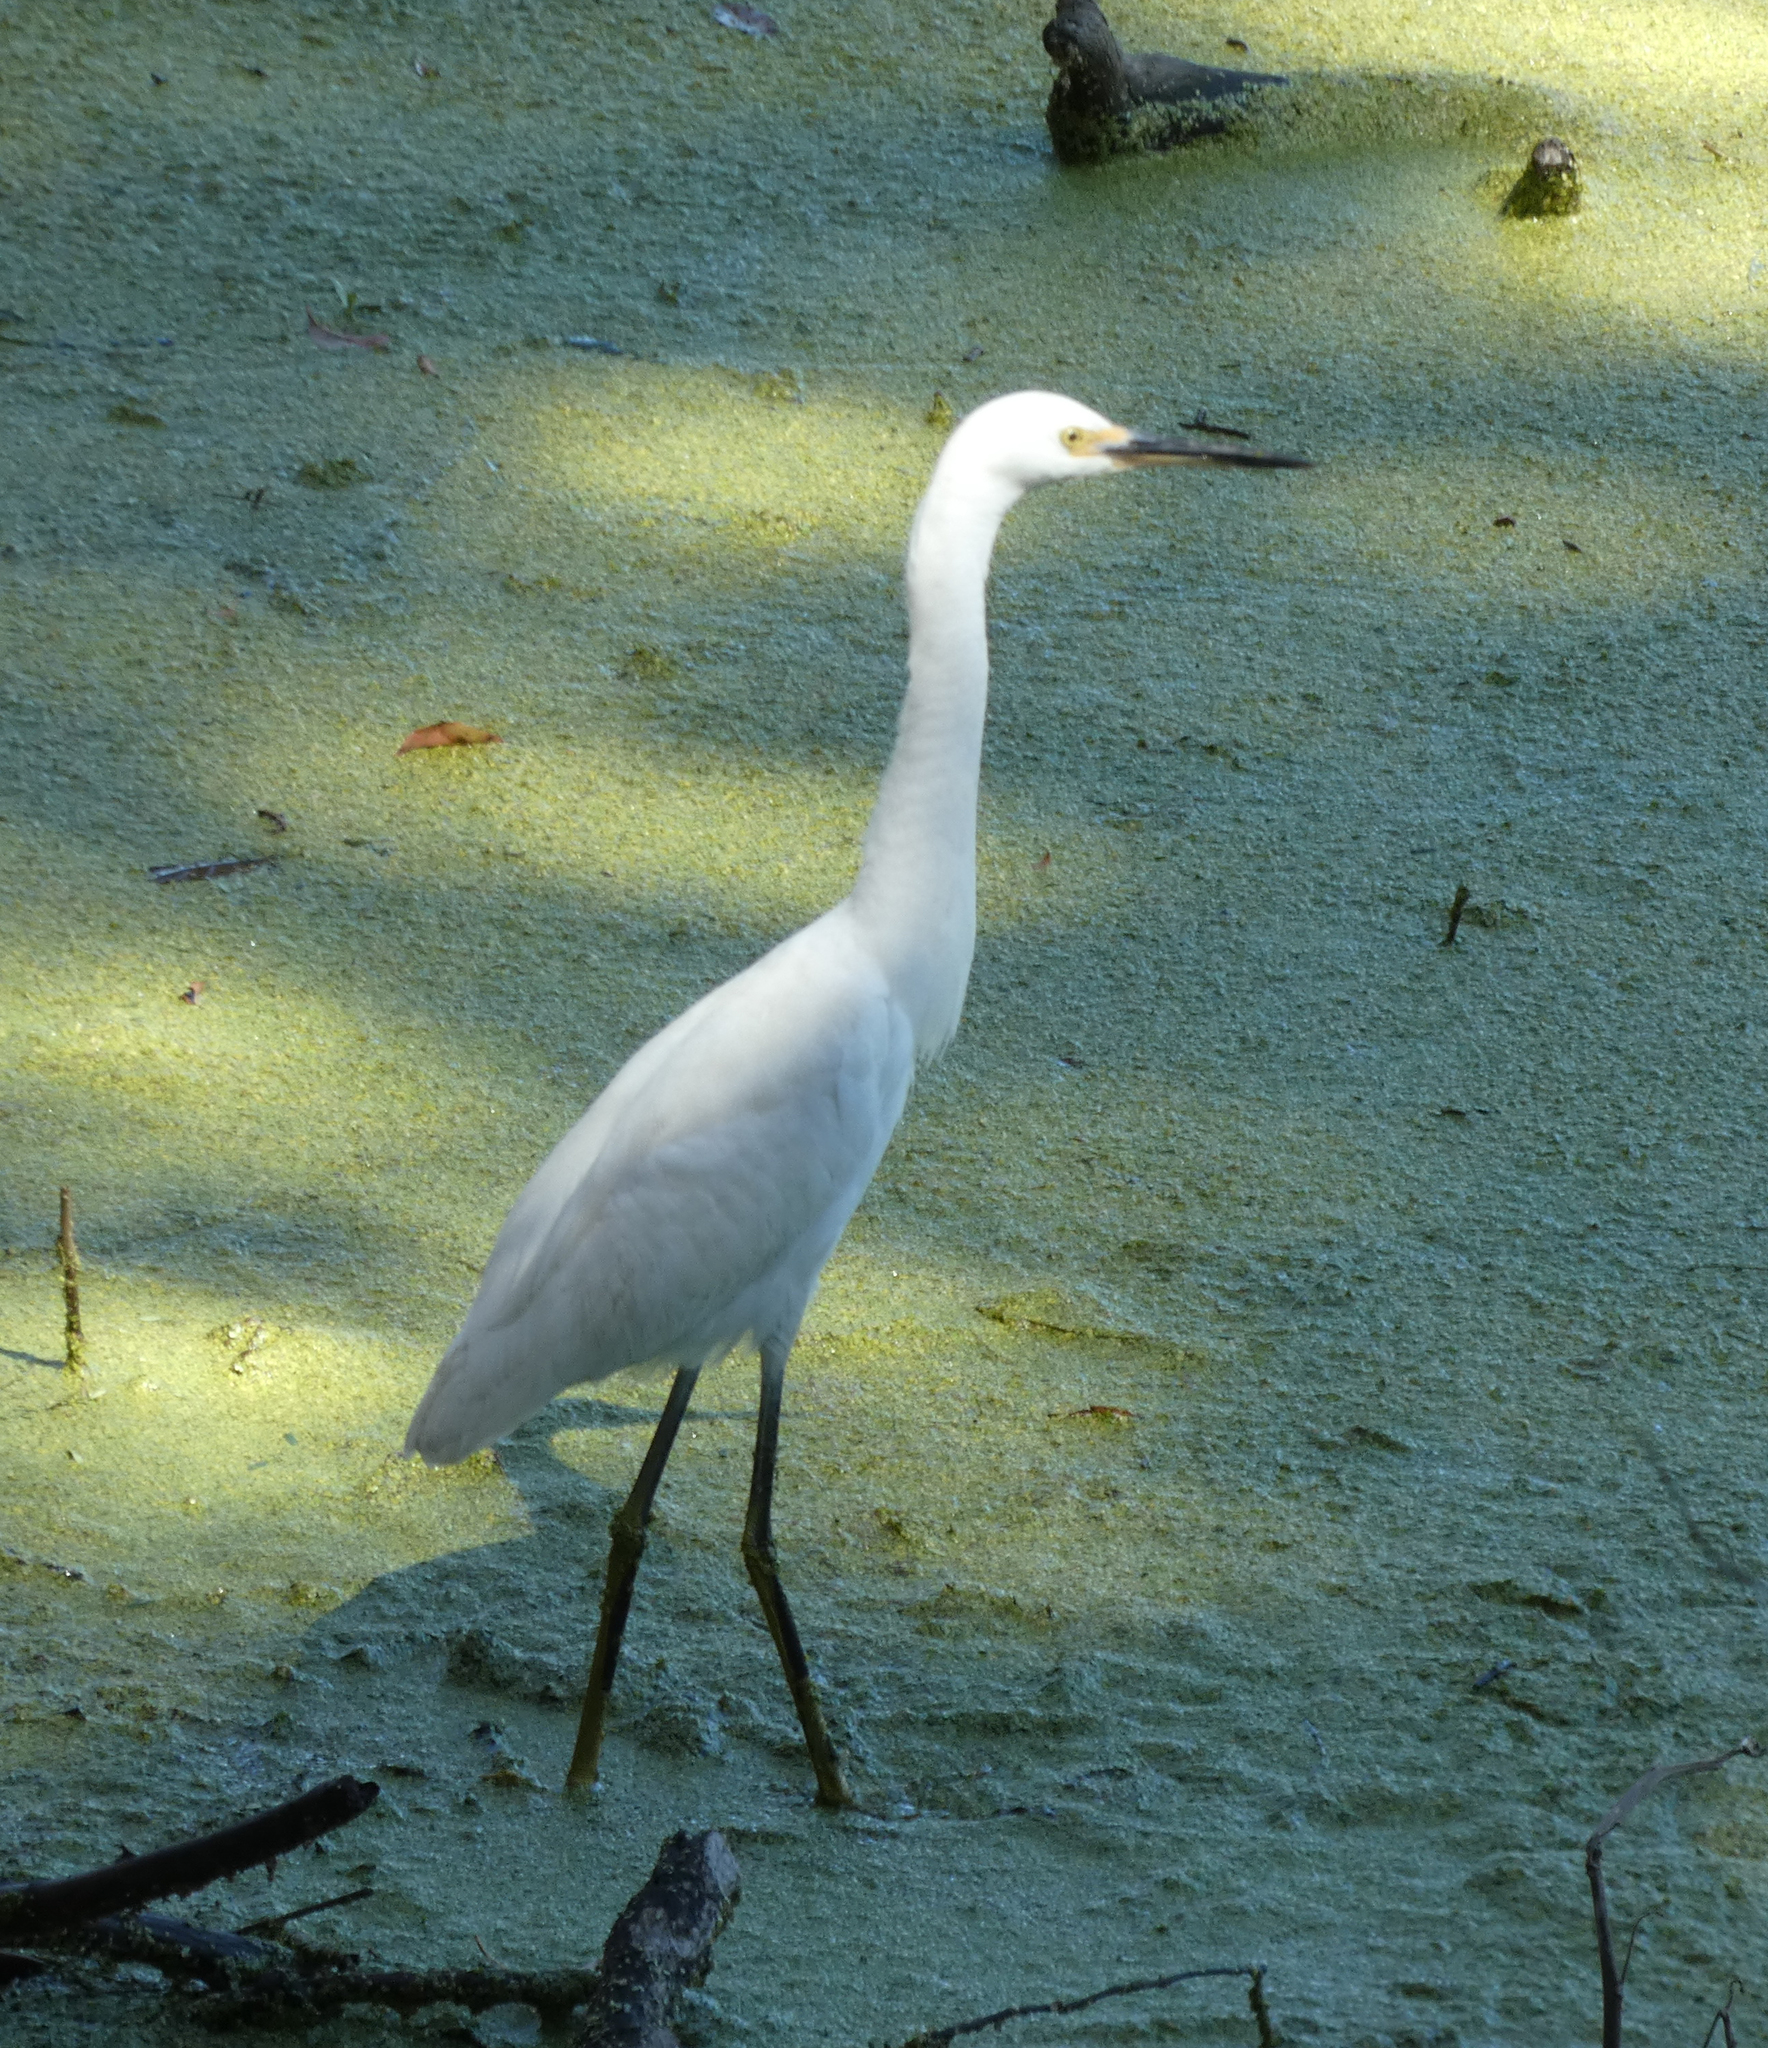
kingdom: Animalia
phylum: Chordata
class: Aves
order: Pelecaniformes
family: Ardeidae
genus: Egretta
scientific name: Egretta thula
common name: Snowy egret
